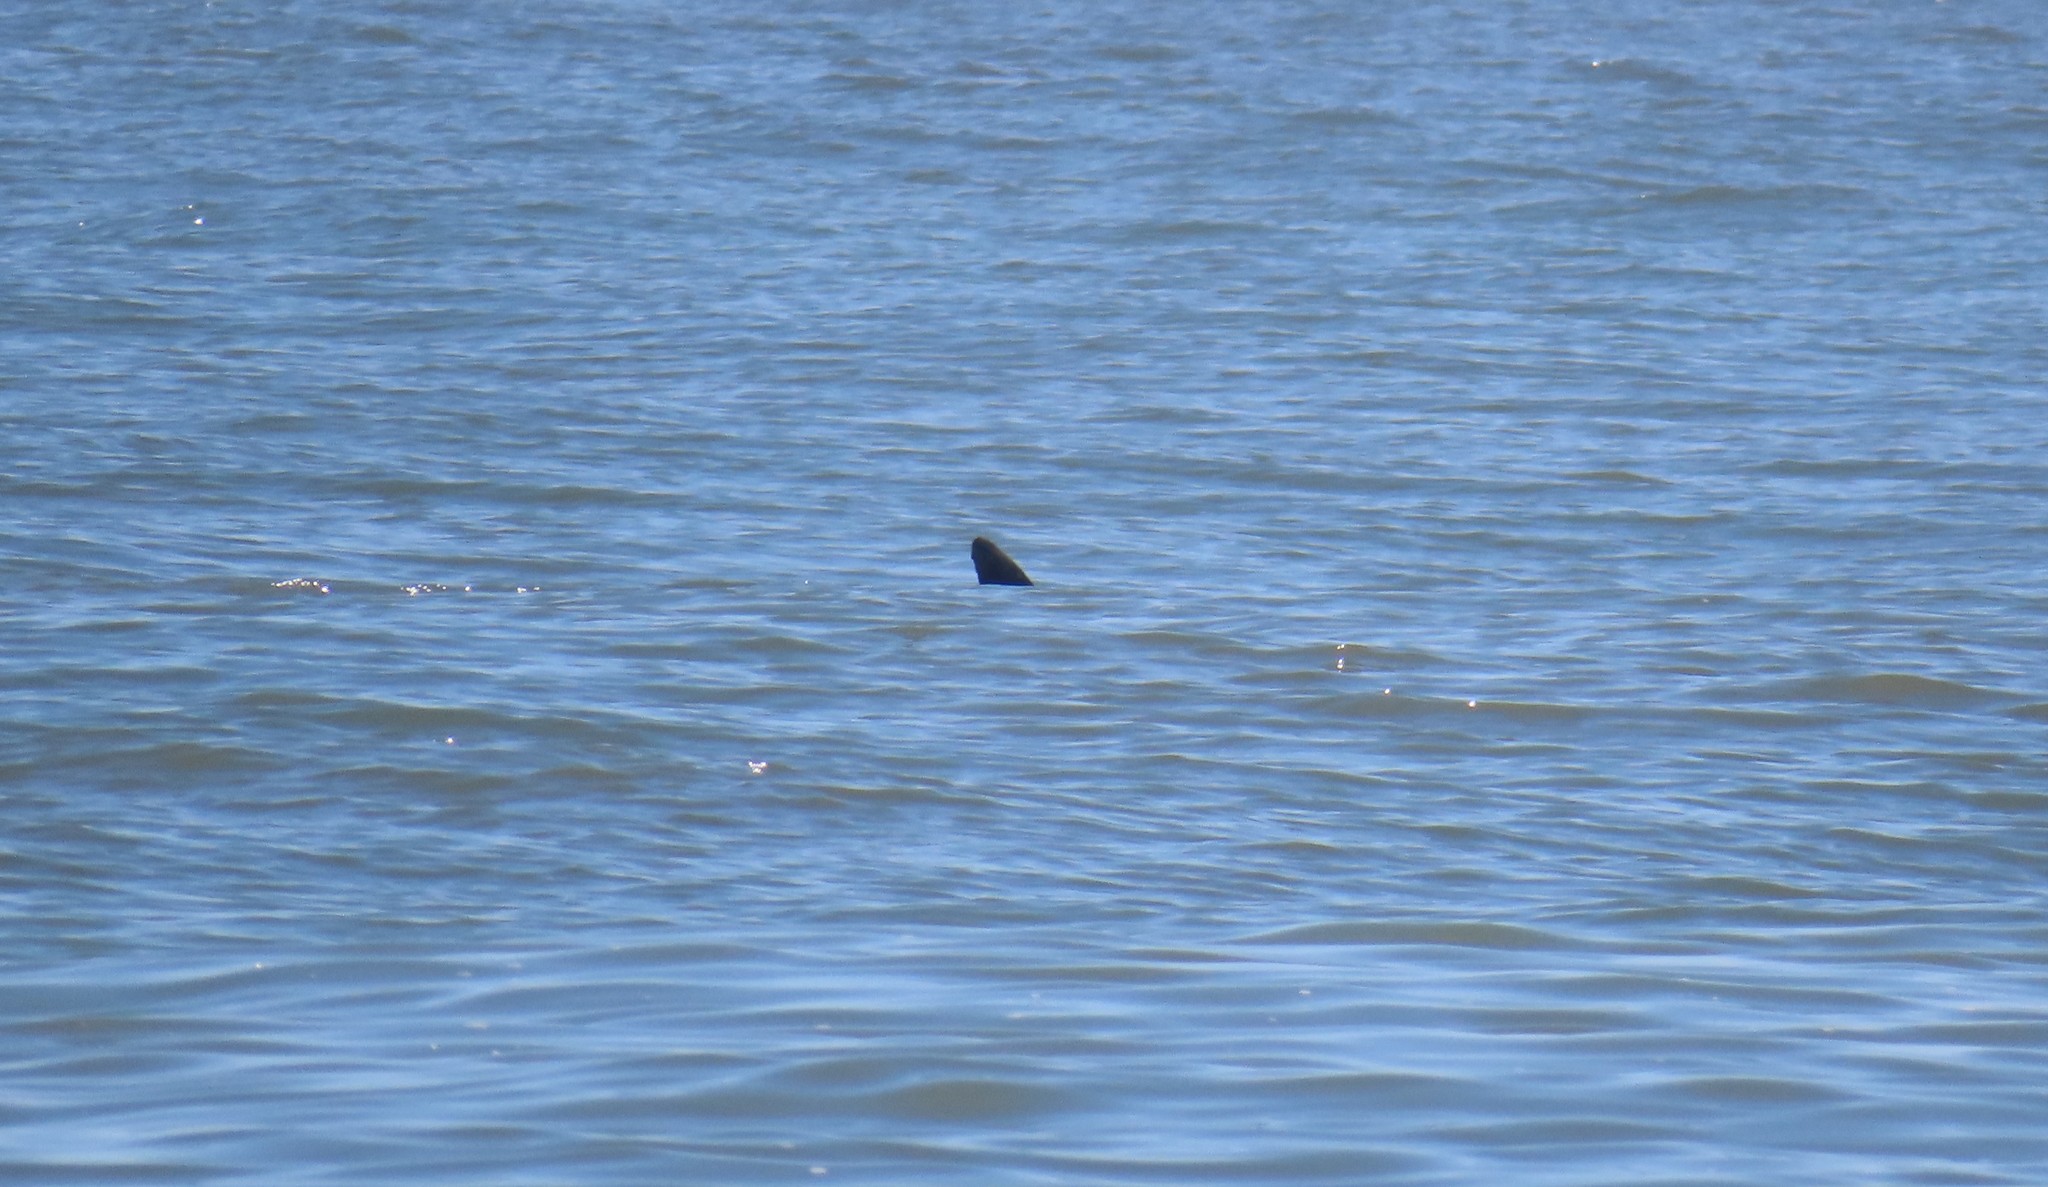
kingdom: Animalia
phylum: Chordata
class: Mammalia
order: Cetacea
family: Delphinidae
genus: Tursiops
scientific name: Tursiops truncatus
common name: Bottlenose dolphin
